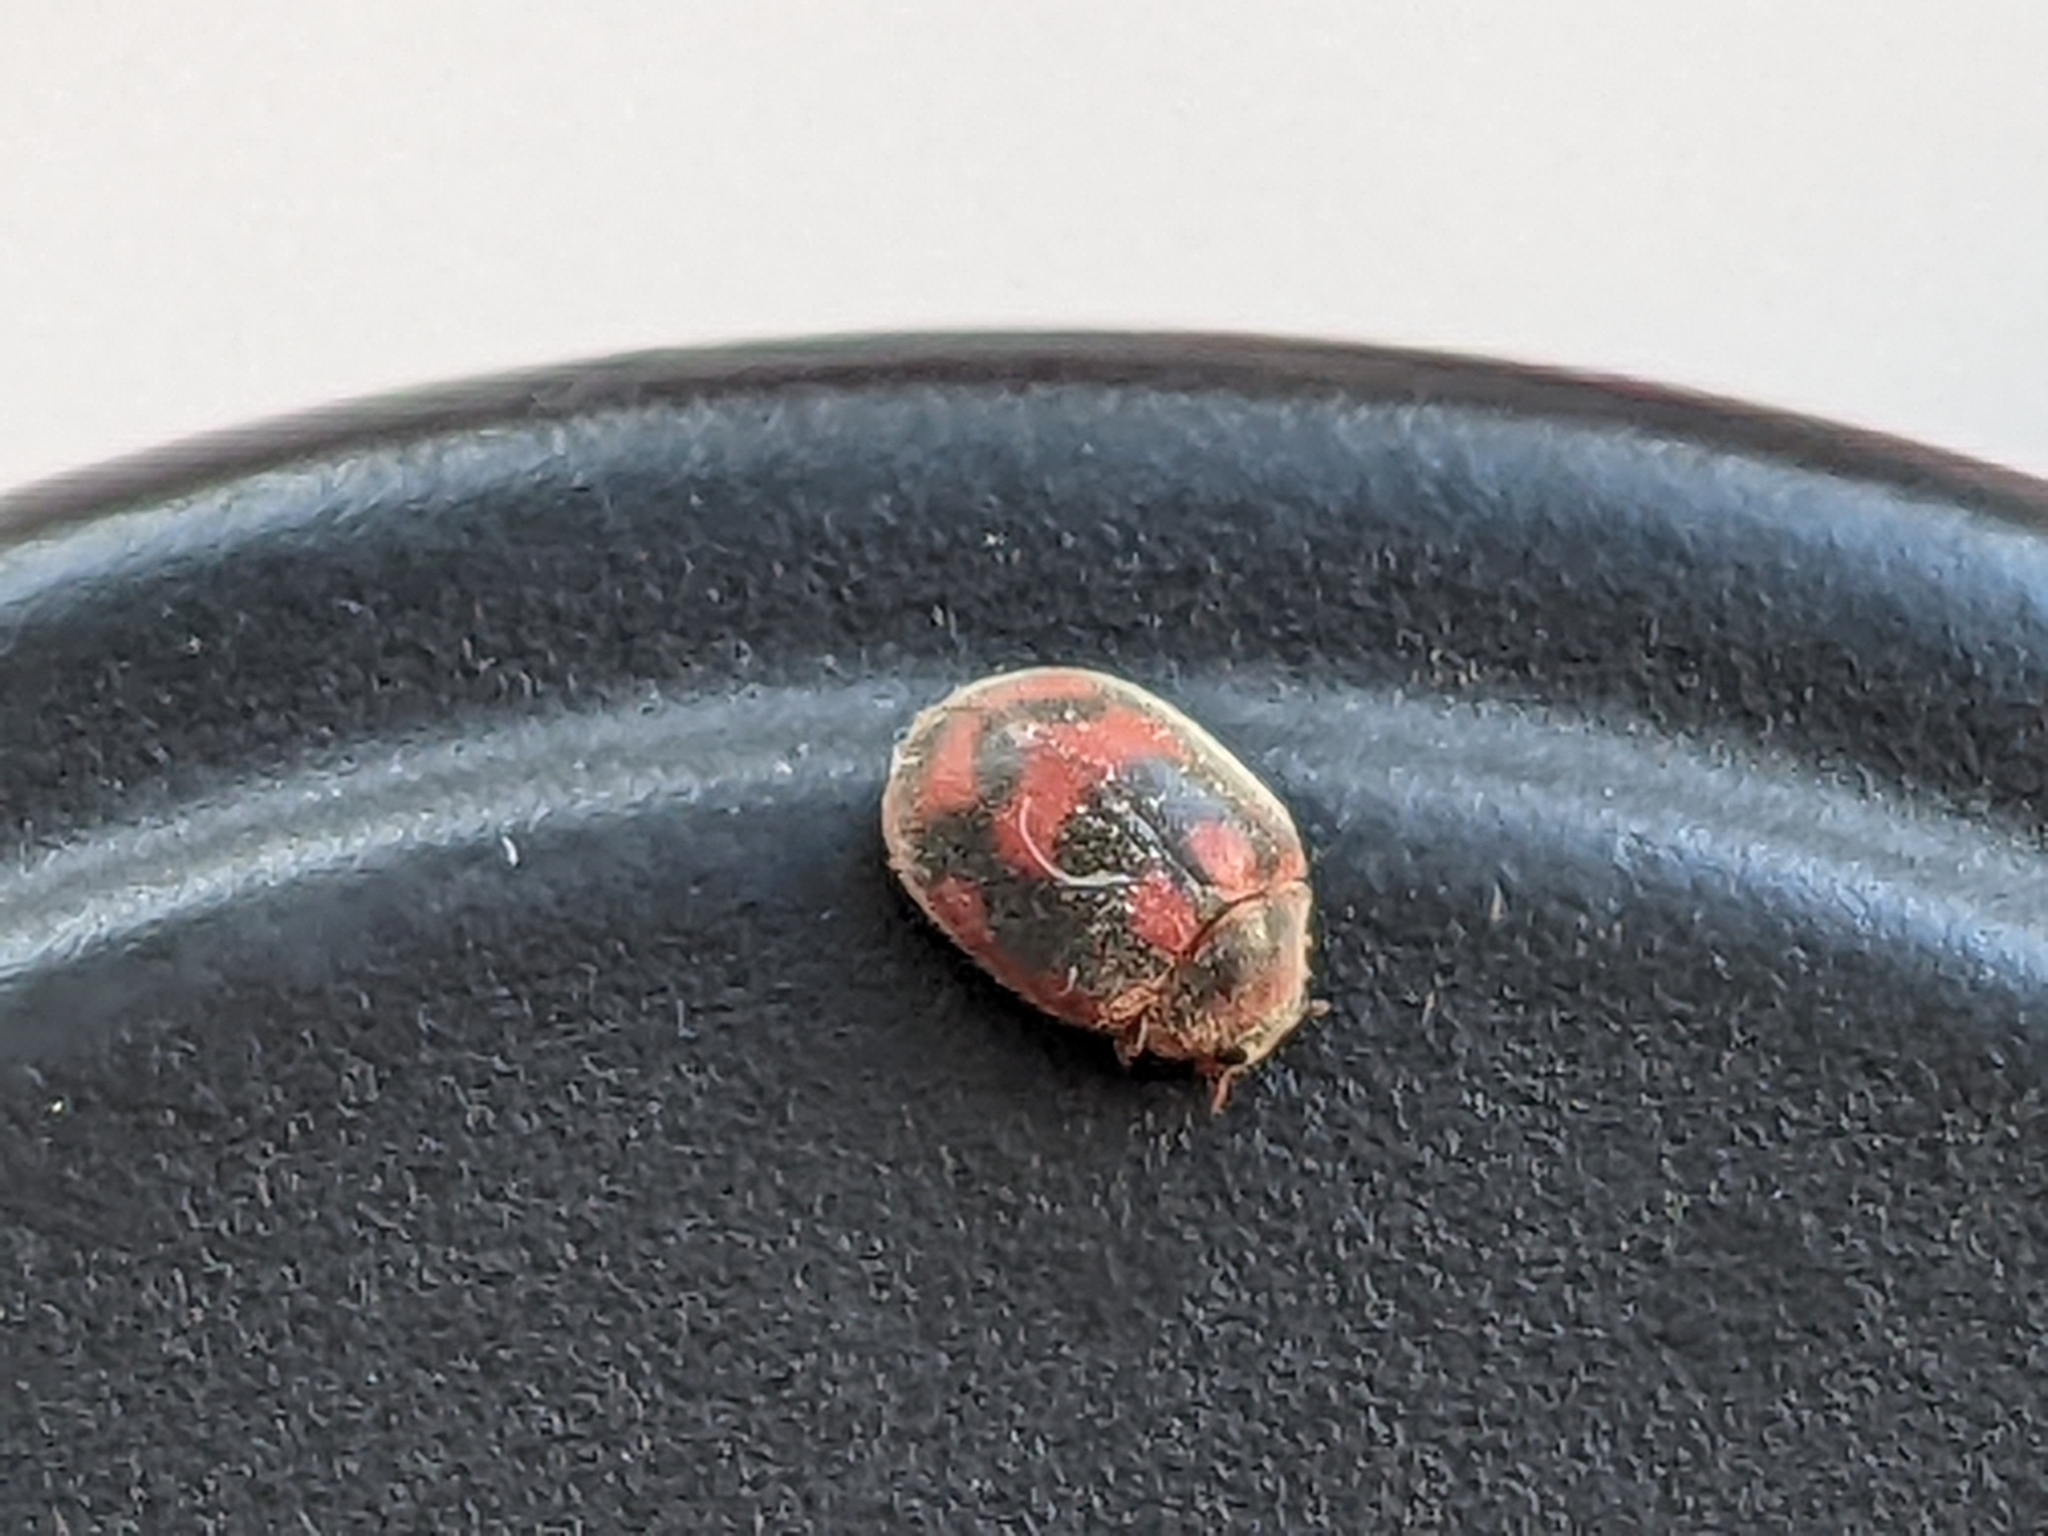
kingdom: Animalia
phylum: Arthropoda
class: Insecta
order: Coleoptera
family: Coccinellidae
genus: Novius
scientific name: Novius cardinalis
